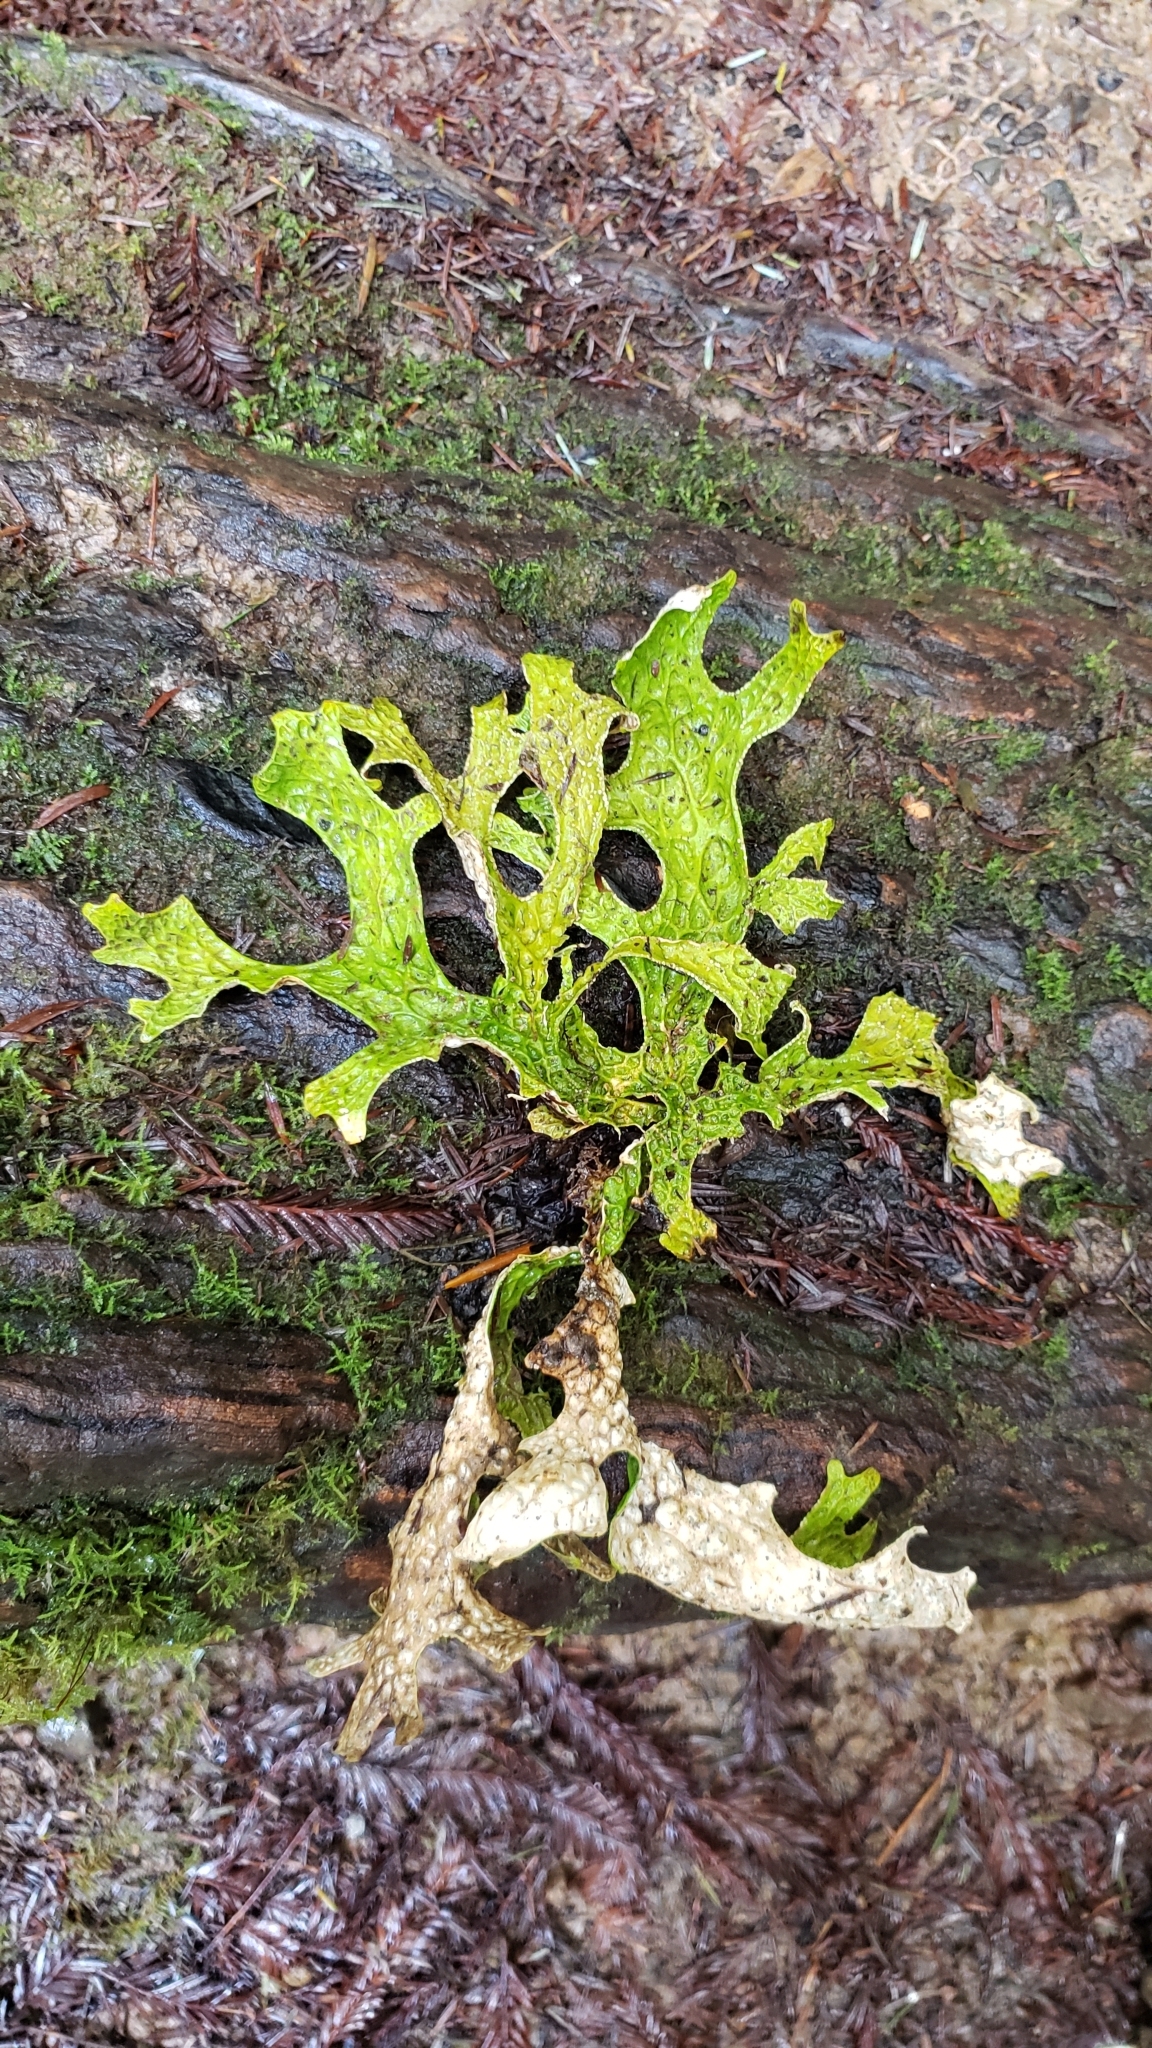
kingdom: Fungi
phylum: Ascomycota
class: Lecanoromycetes
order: Peltigerales
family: Lobariaceae
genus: Lobaria
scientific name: Lobaria pulmonaria
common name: Lungwort
